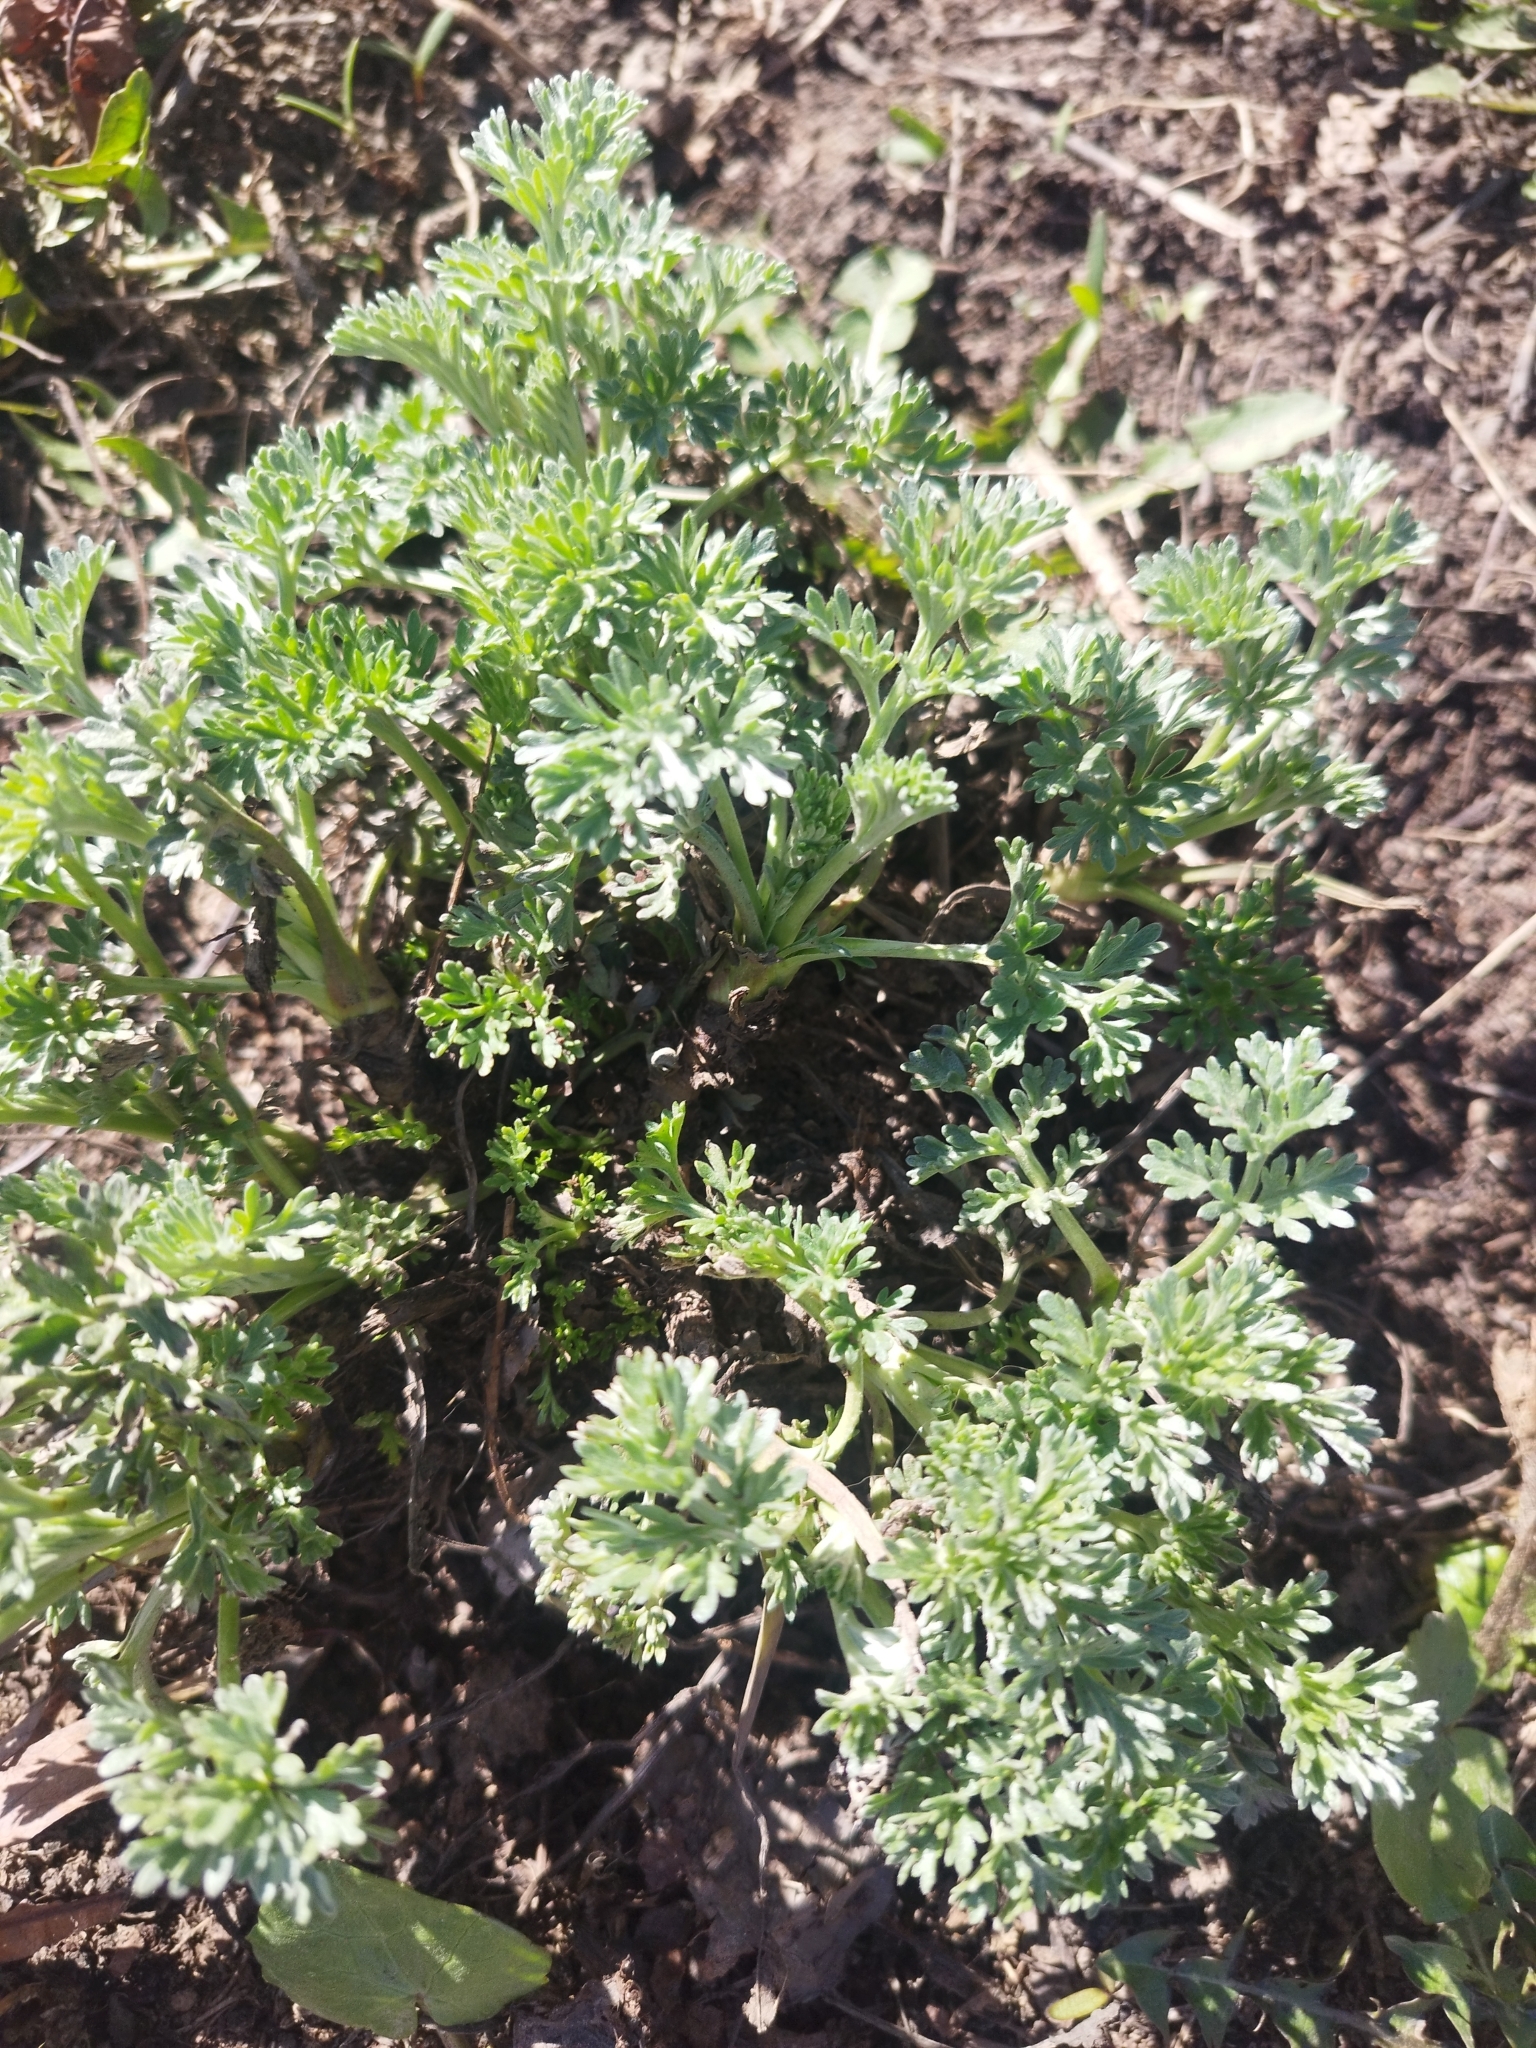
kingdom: Plantae
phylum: Tracheophyta
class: Magnoliopsida
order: Asterales
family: Asteraceae
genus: Artemisia
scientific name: Artemisia absinthium
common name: Wormwood
